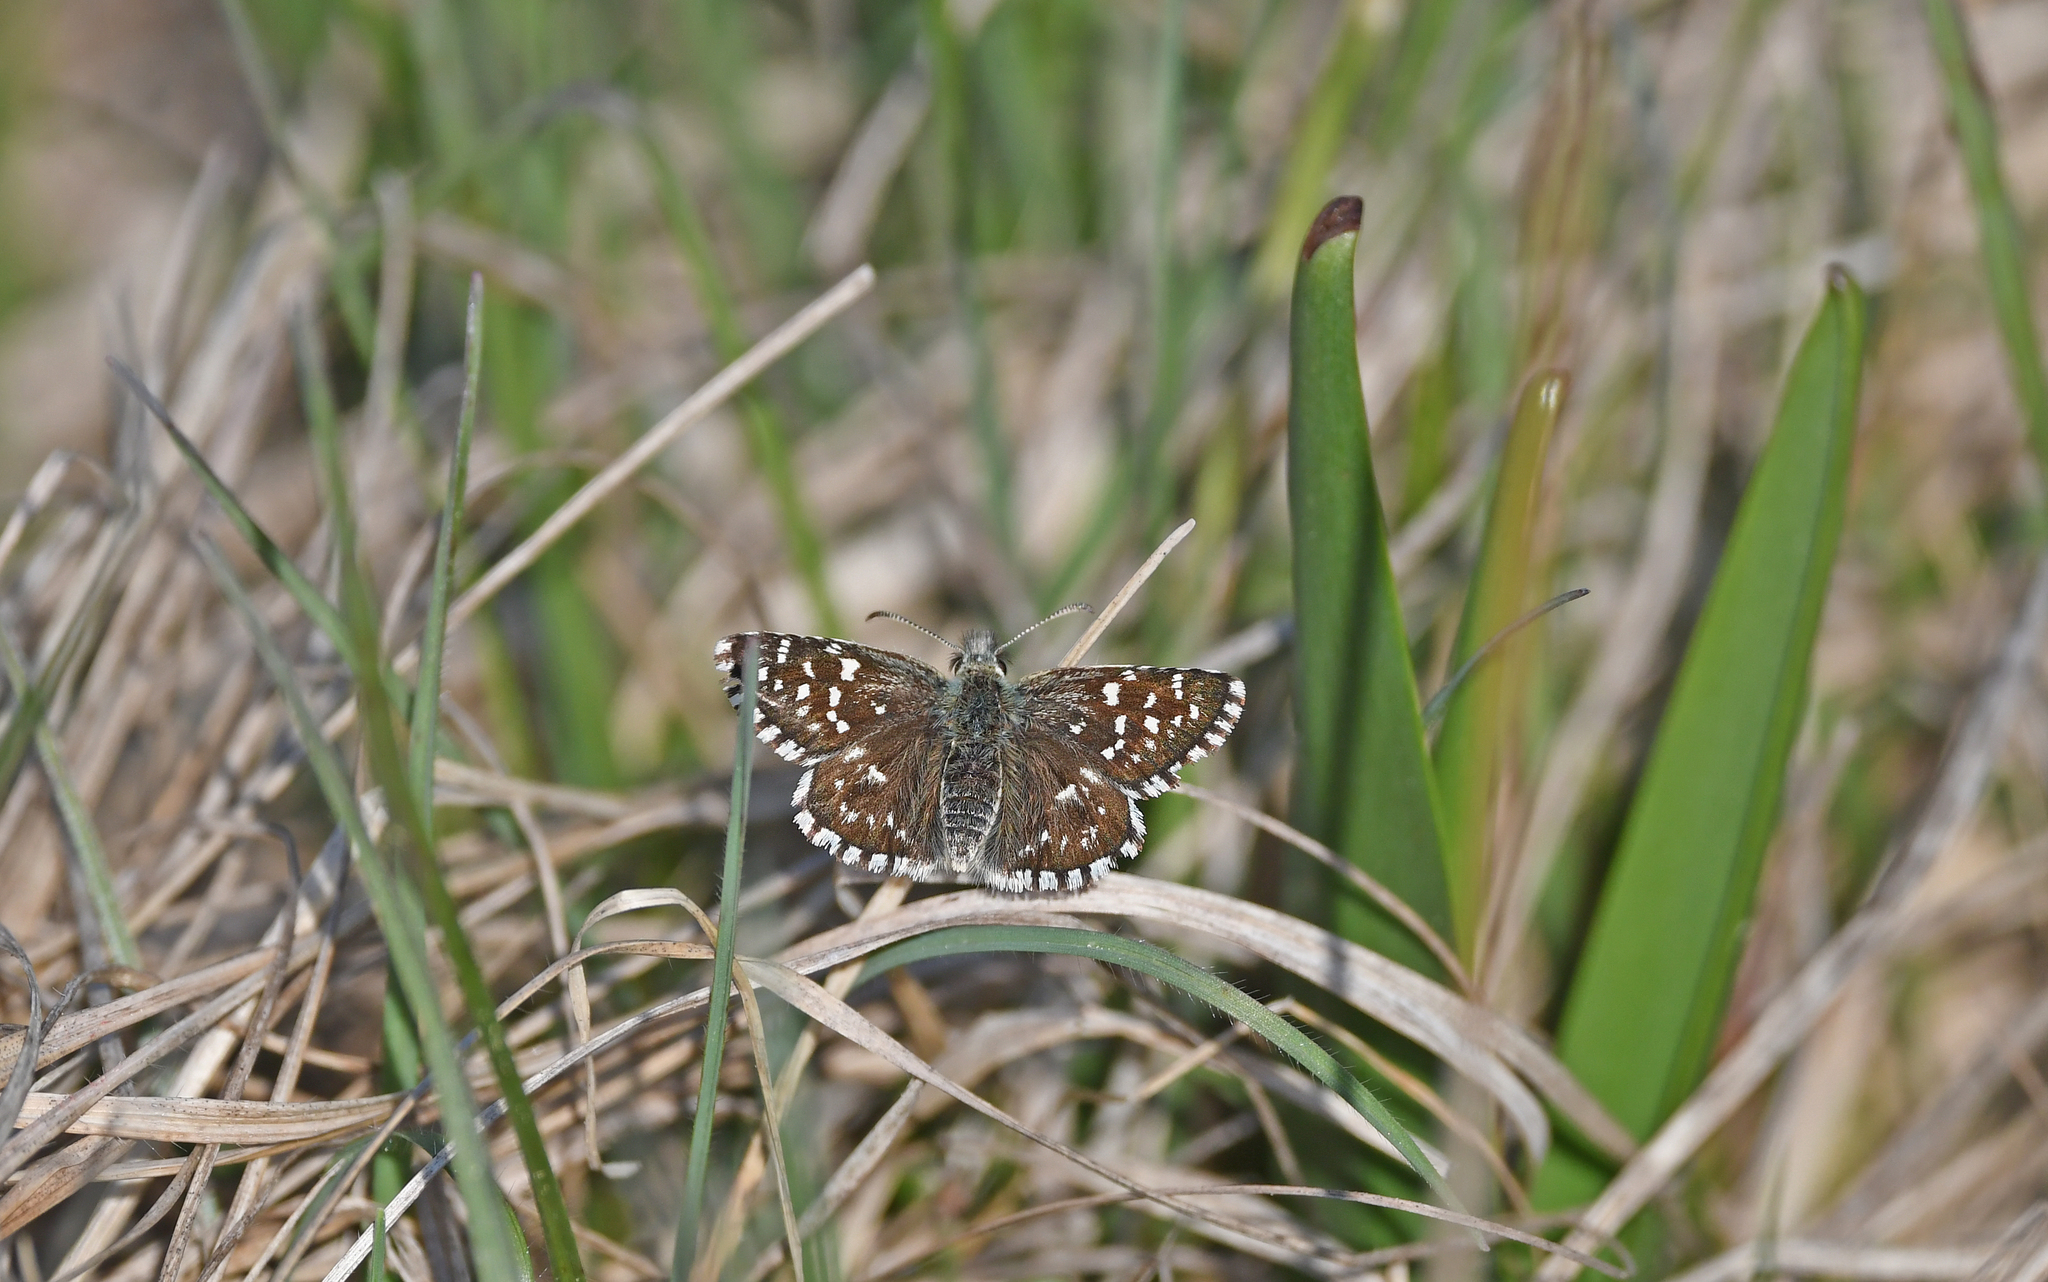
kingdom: Animalia
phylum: Arthropoda
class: Insecta
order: Lepidoptera
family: Hesperiidae
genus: Pyrgus
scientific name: Pyrgus malvae
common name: Grizzled skipper
